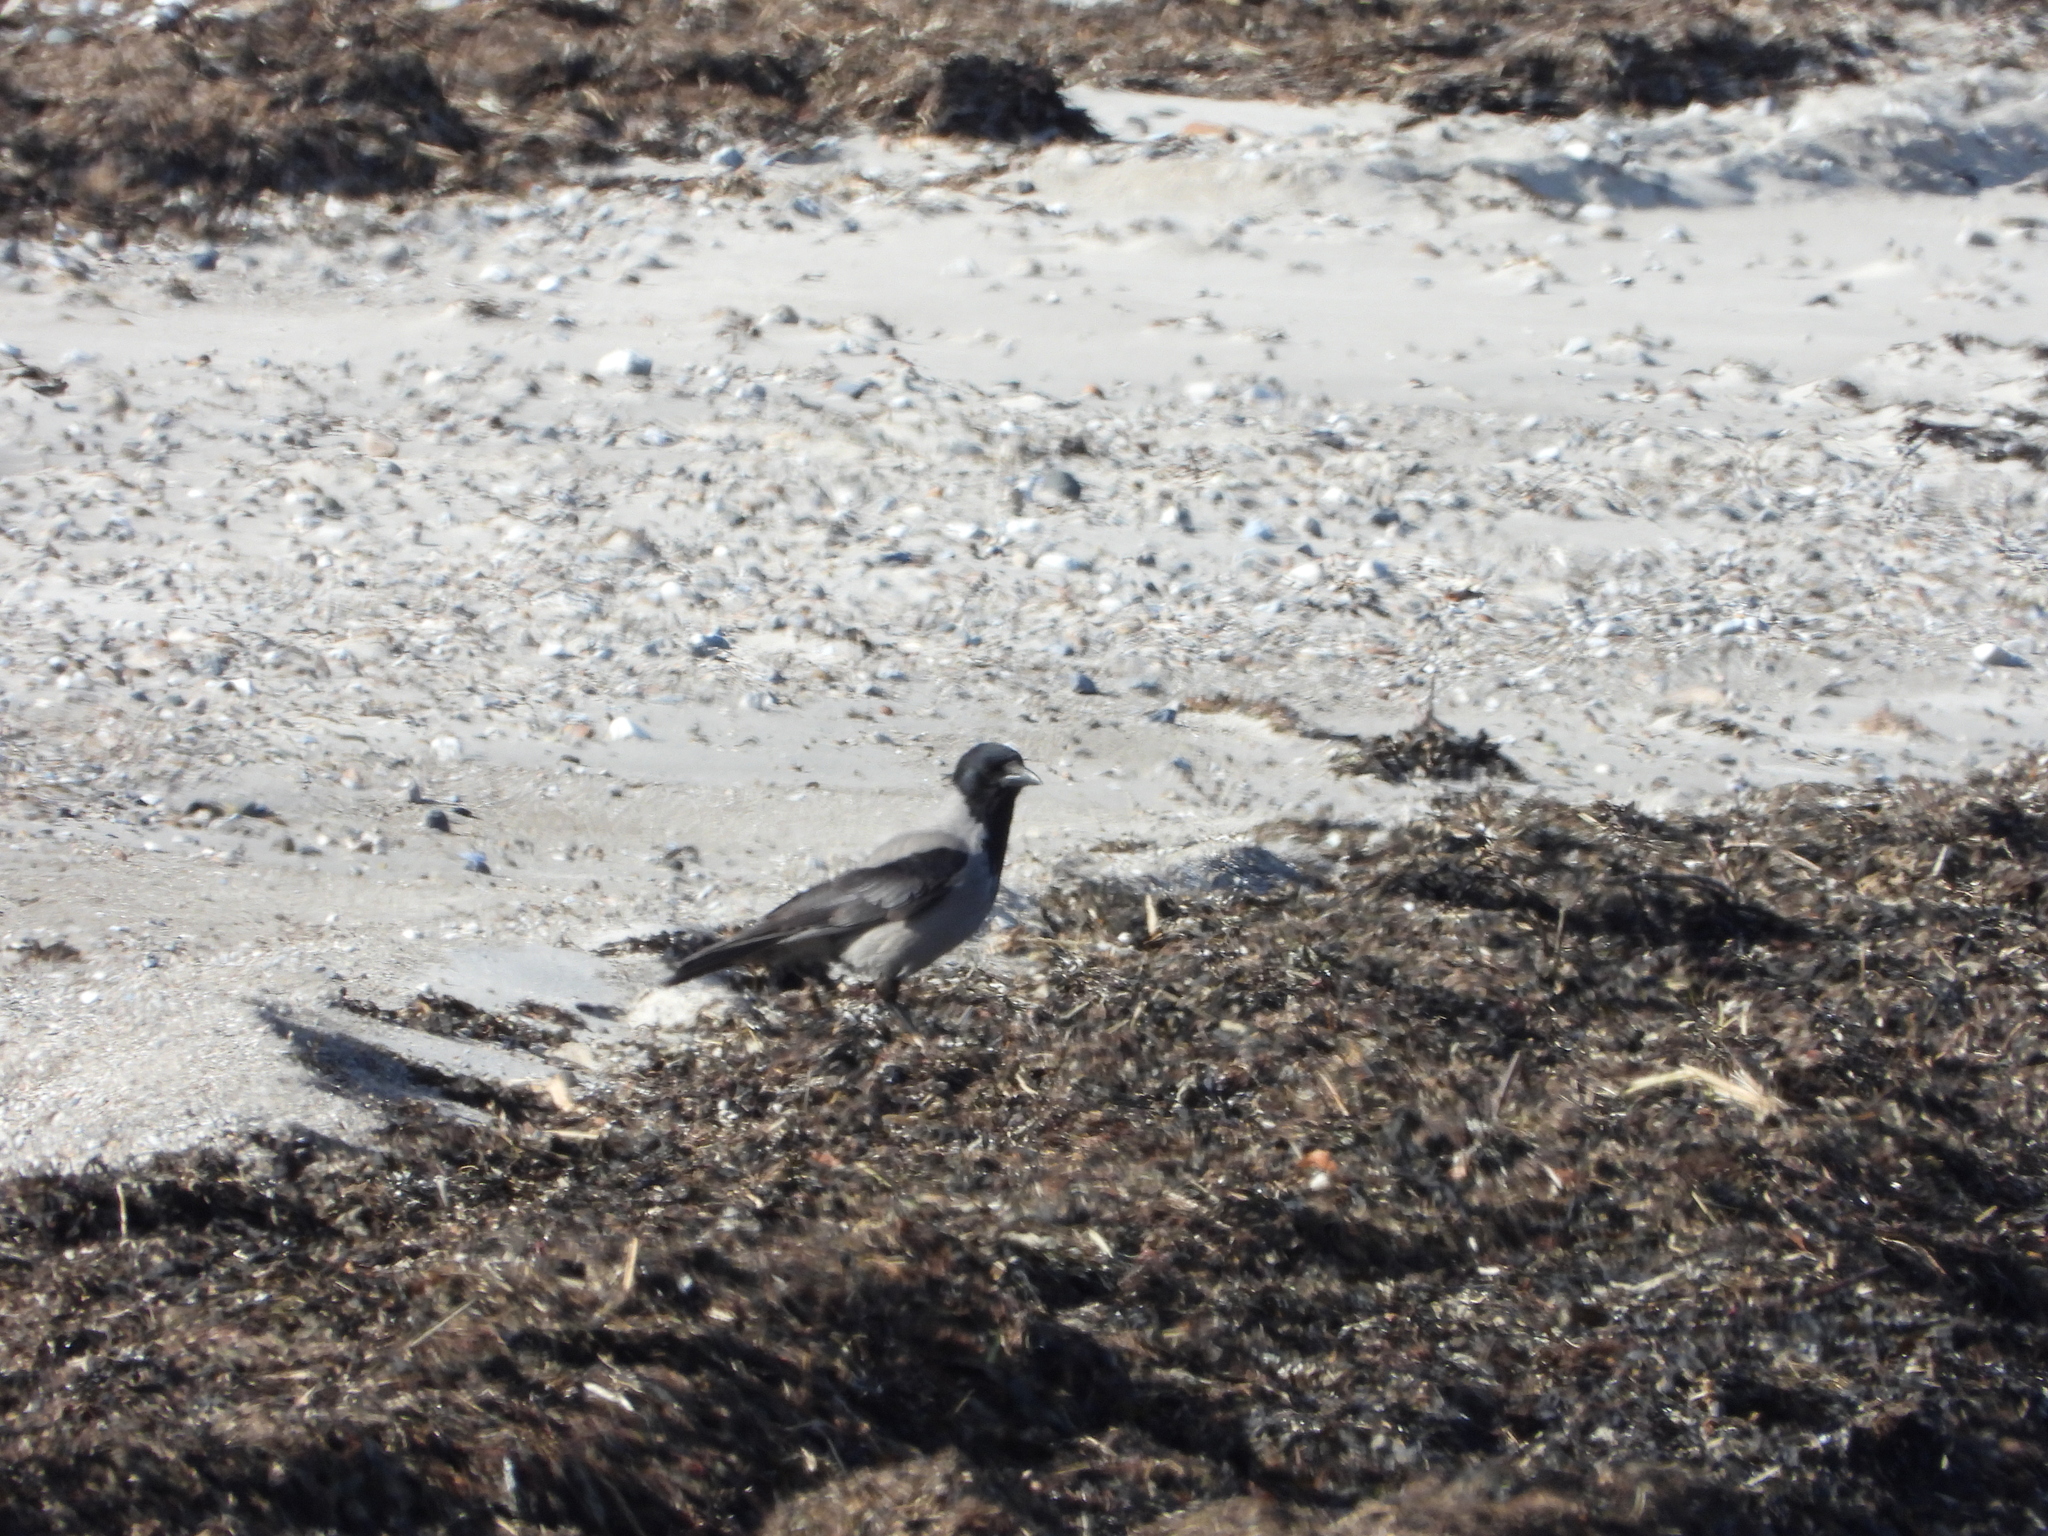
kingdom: Animalia
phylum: Chordata
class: Aves
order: Passeriformes
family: Corvidae
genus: Corvus
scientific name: Corvus cornix
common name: Hooded crow
